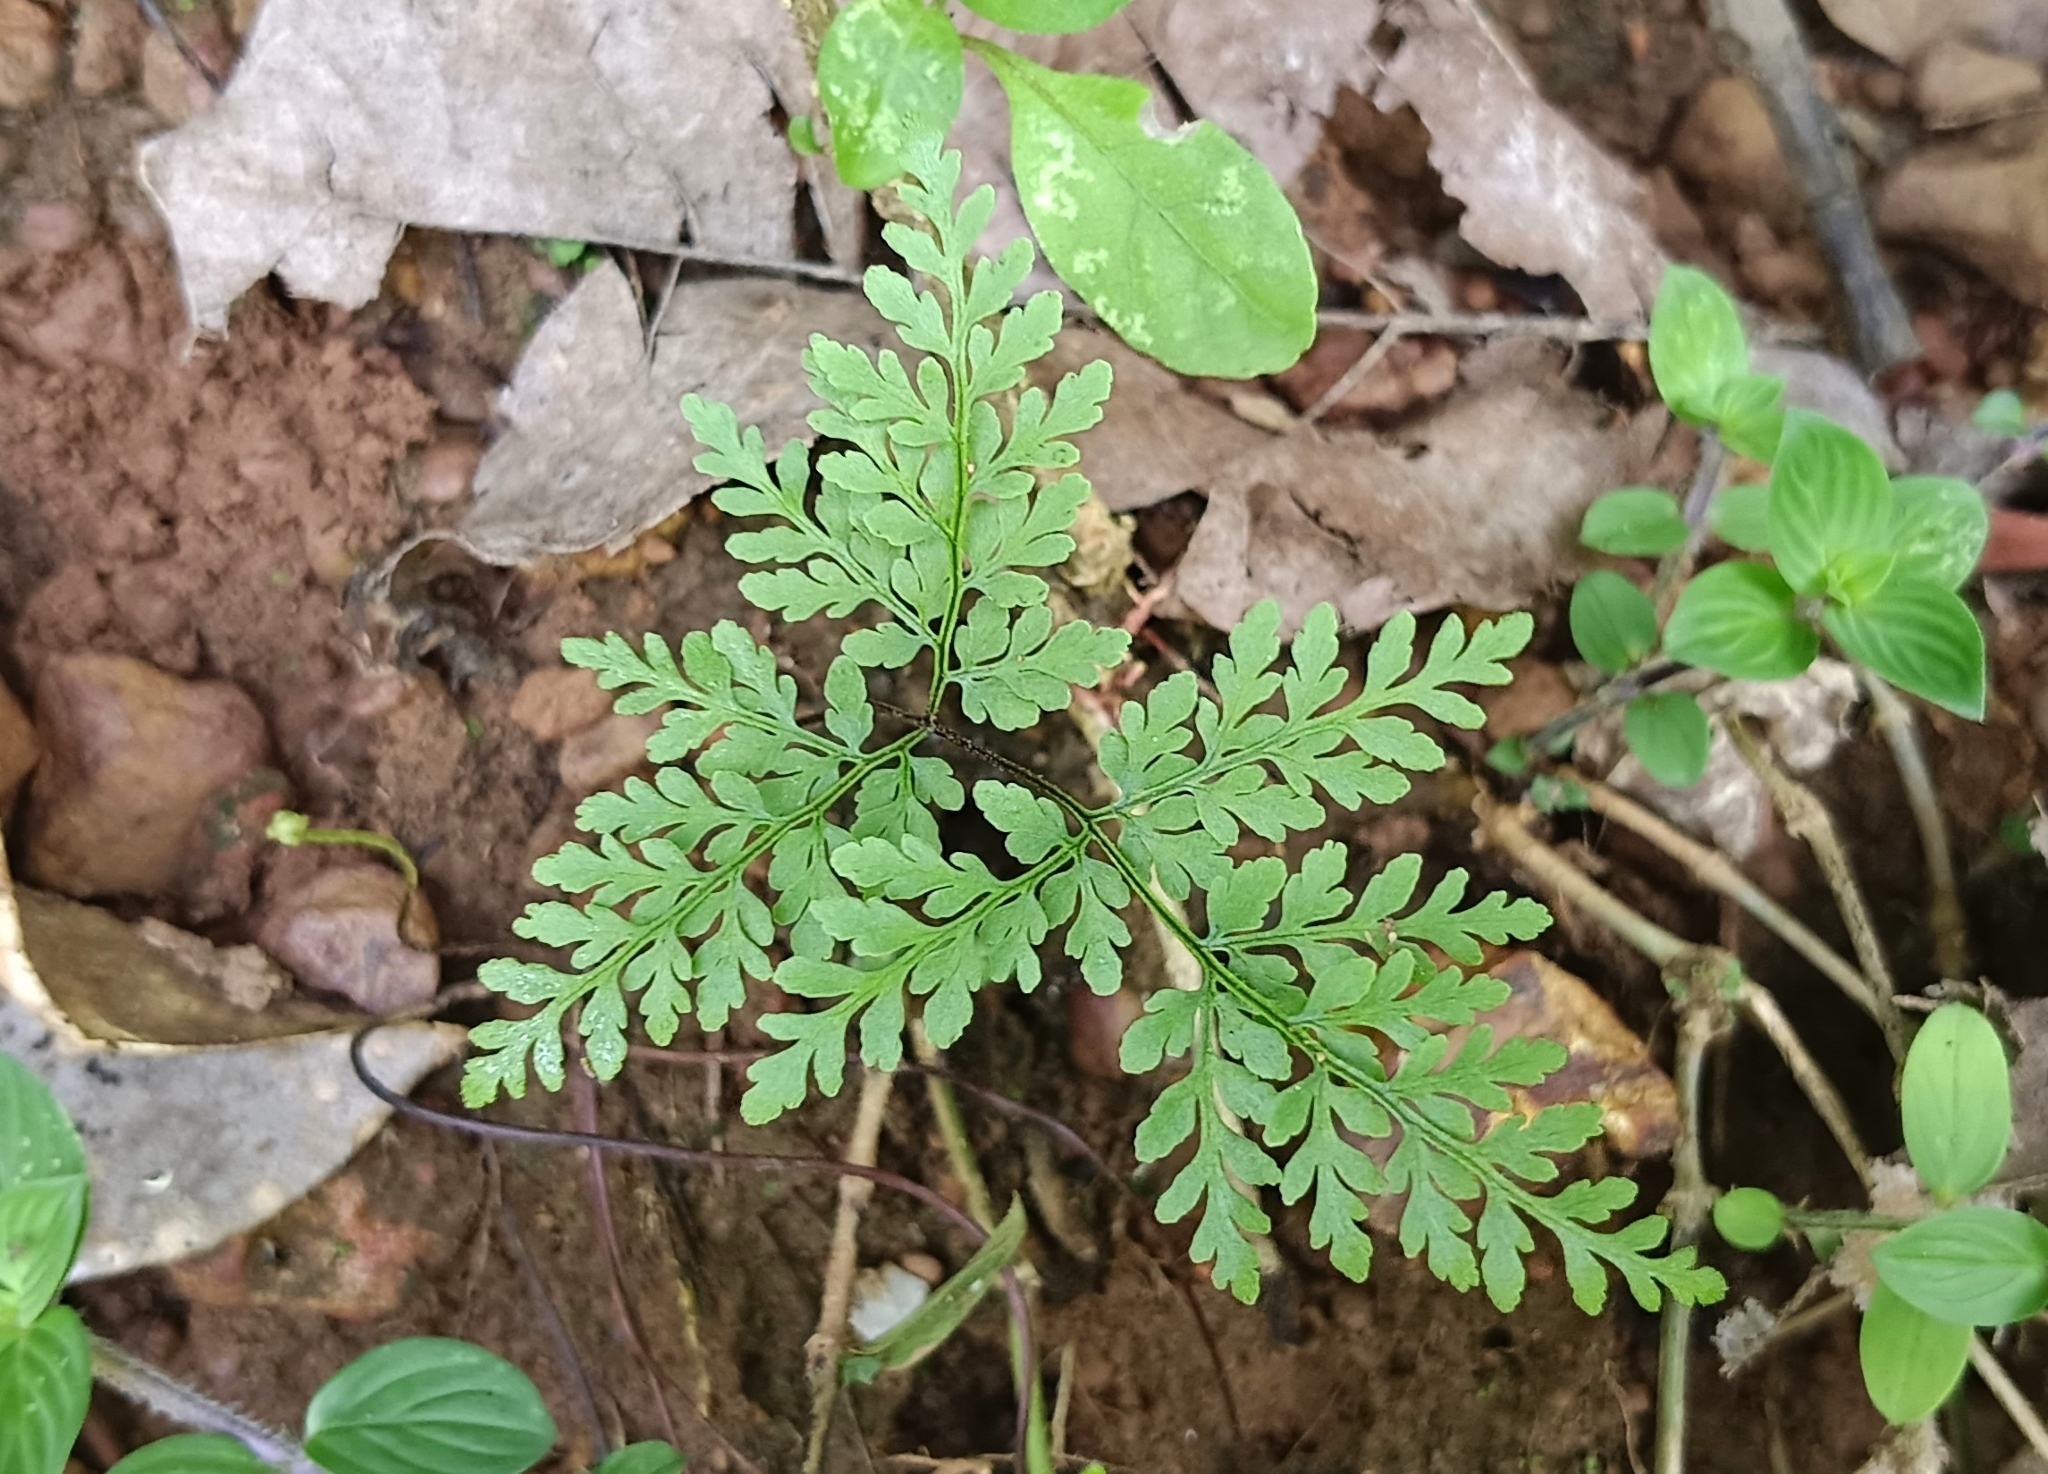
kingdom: Plantae
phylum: Tracheophyta
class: Polypodiopsida
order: Polypodiales
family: Pteridaceae
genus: Cheilanthes
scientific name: Cheilanthes tenuifolia
